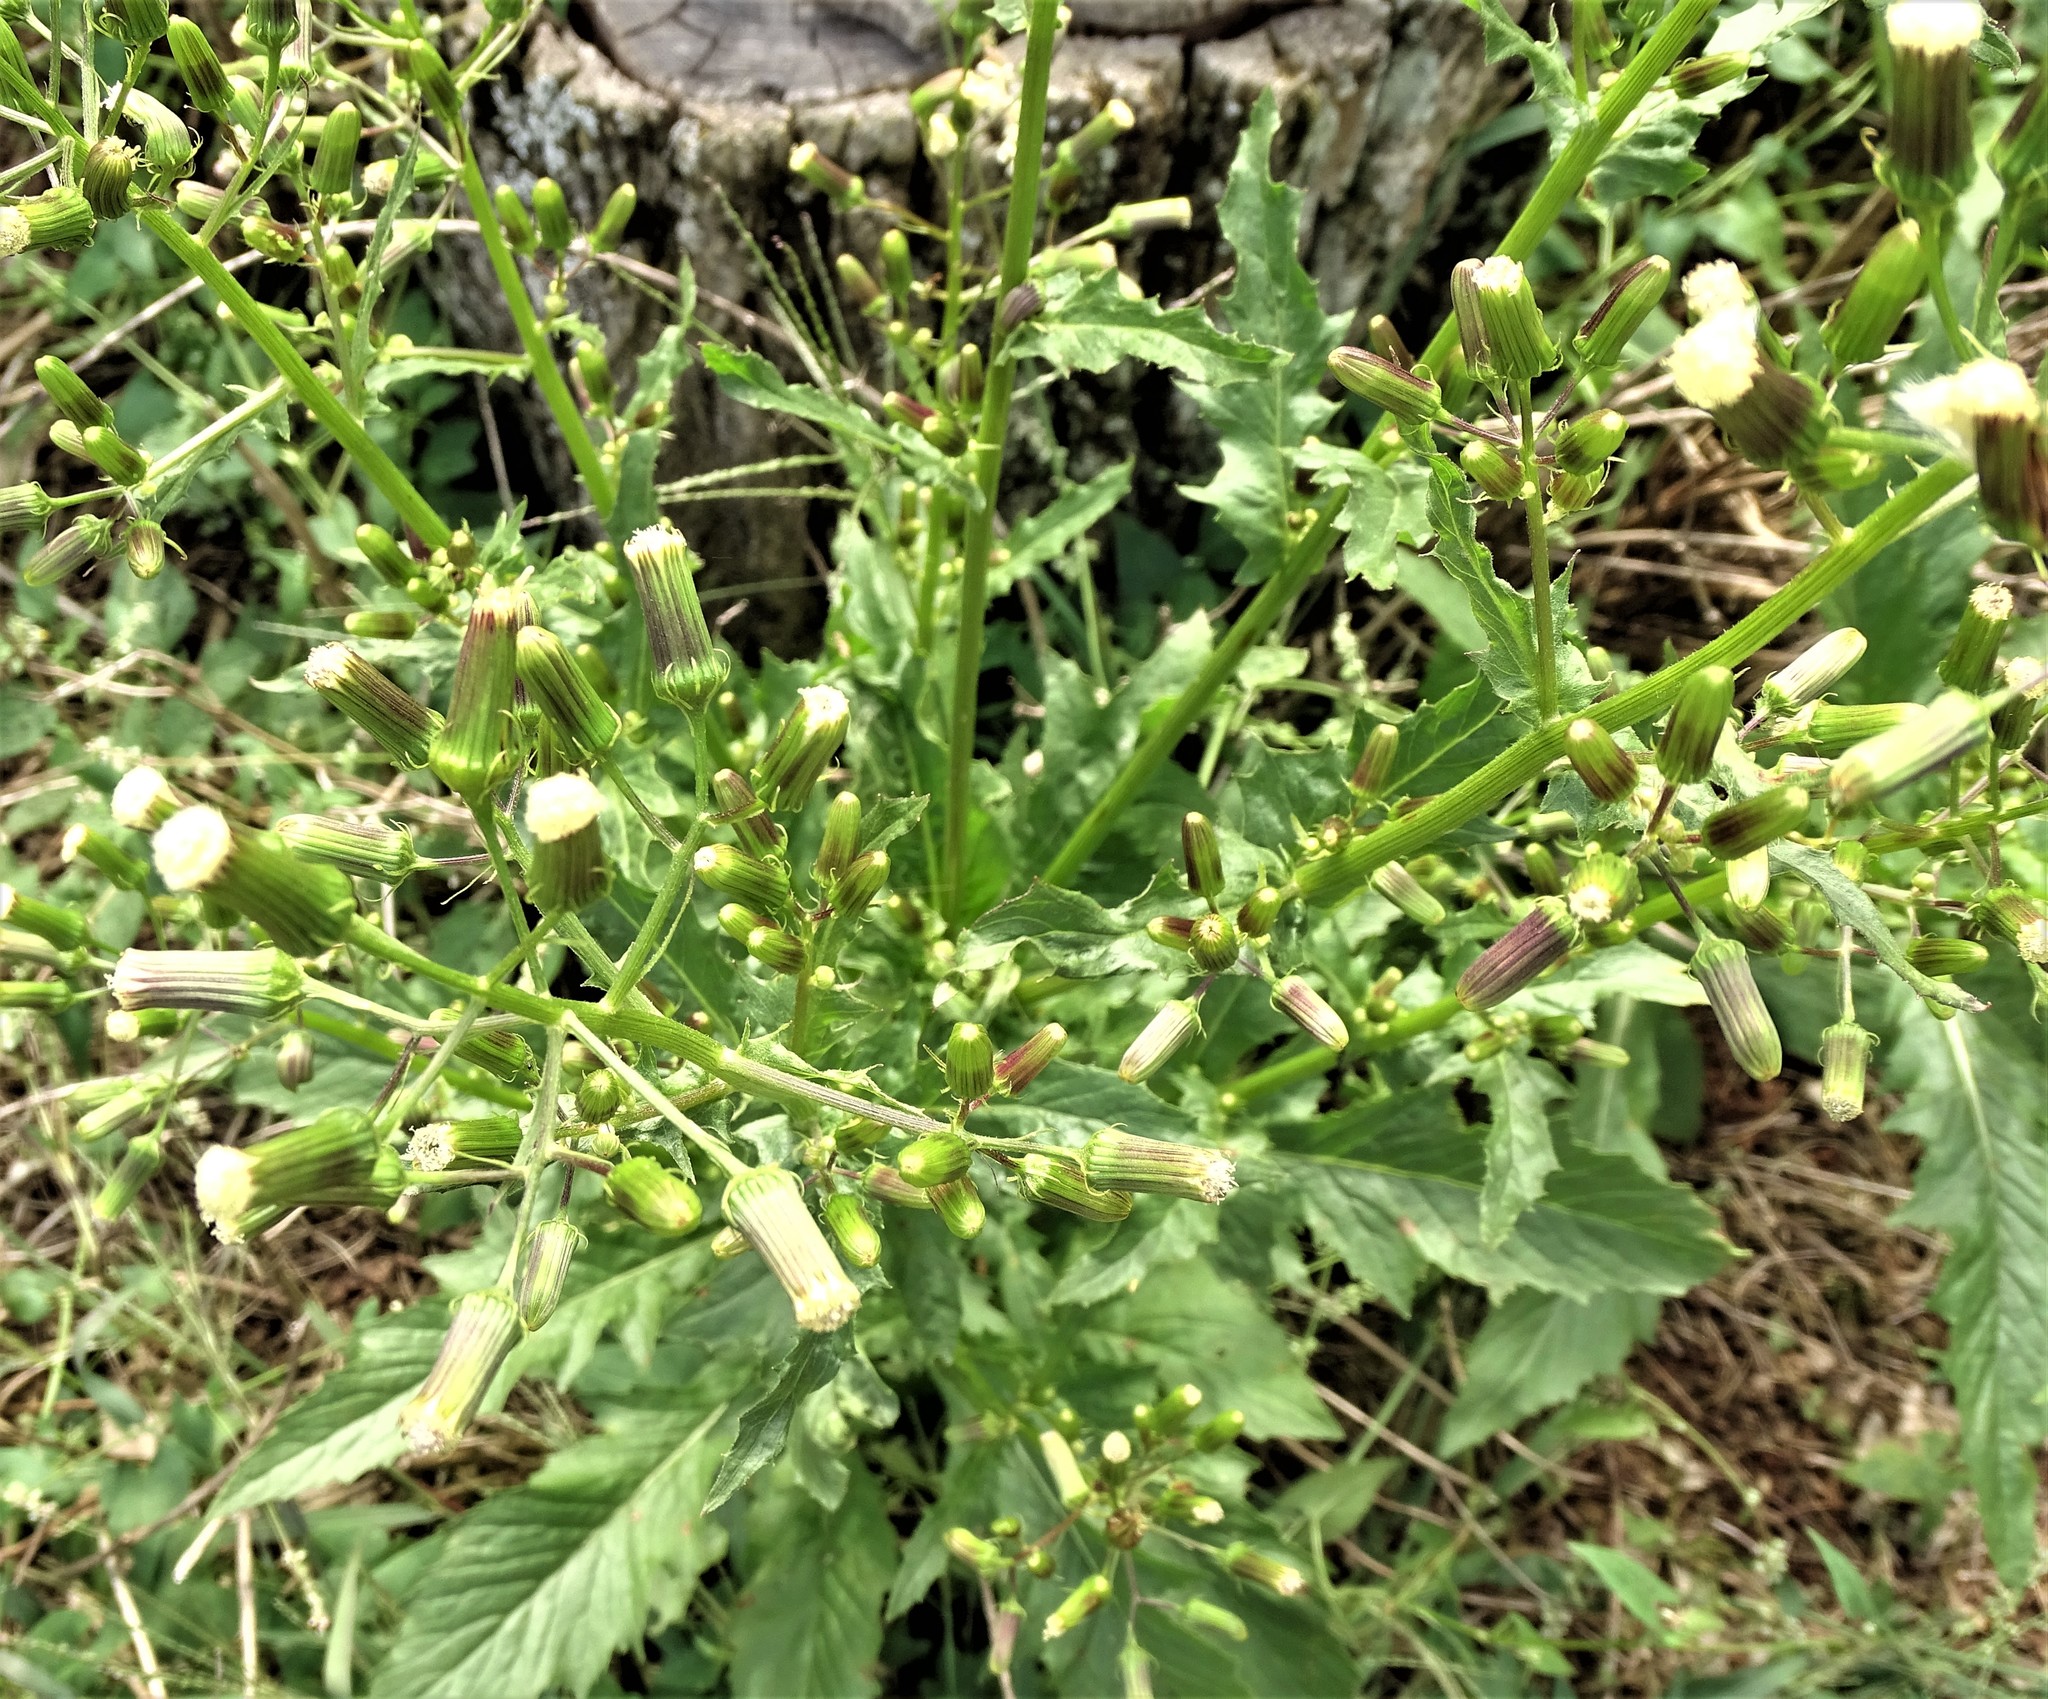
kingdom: Plantae
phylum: Tracheophyta
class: Magnoliopsida
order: Asterales
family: Asteraceae
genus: Erechtites
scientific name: Erechtites hieraciifolius
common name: American burnweed
